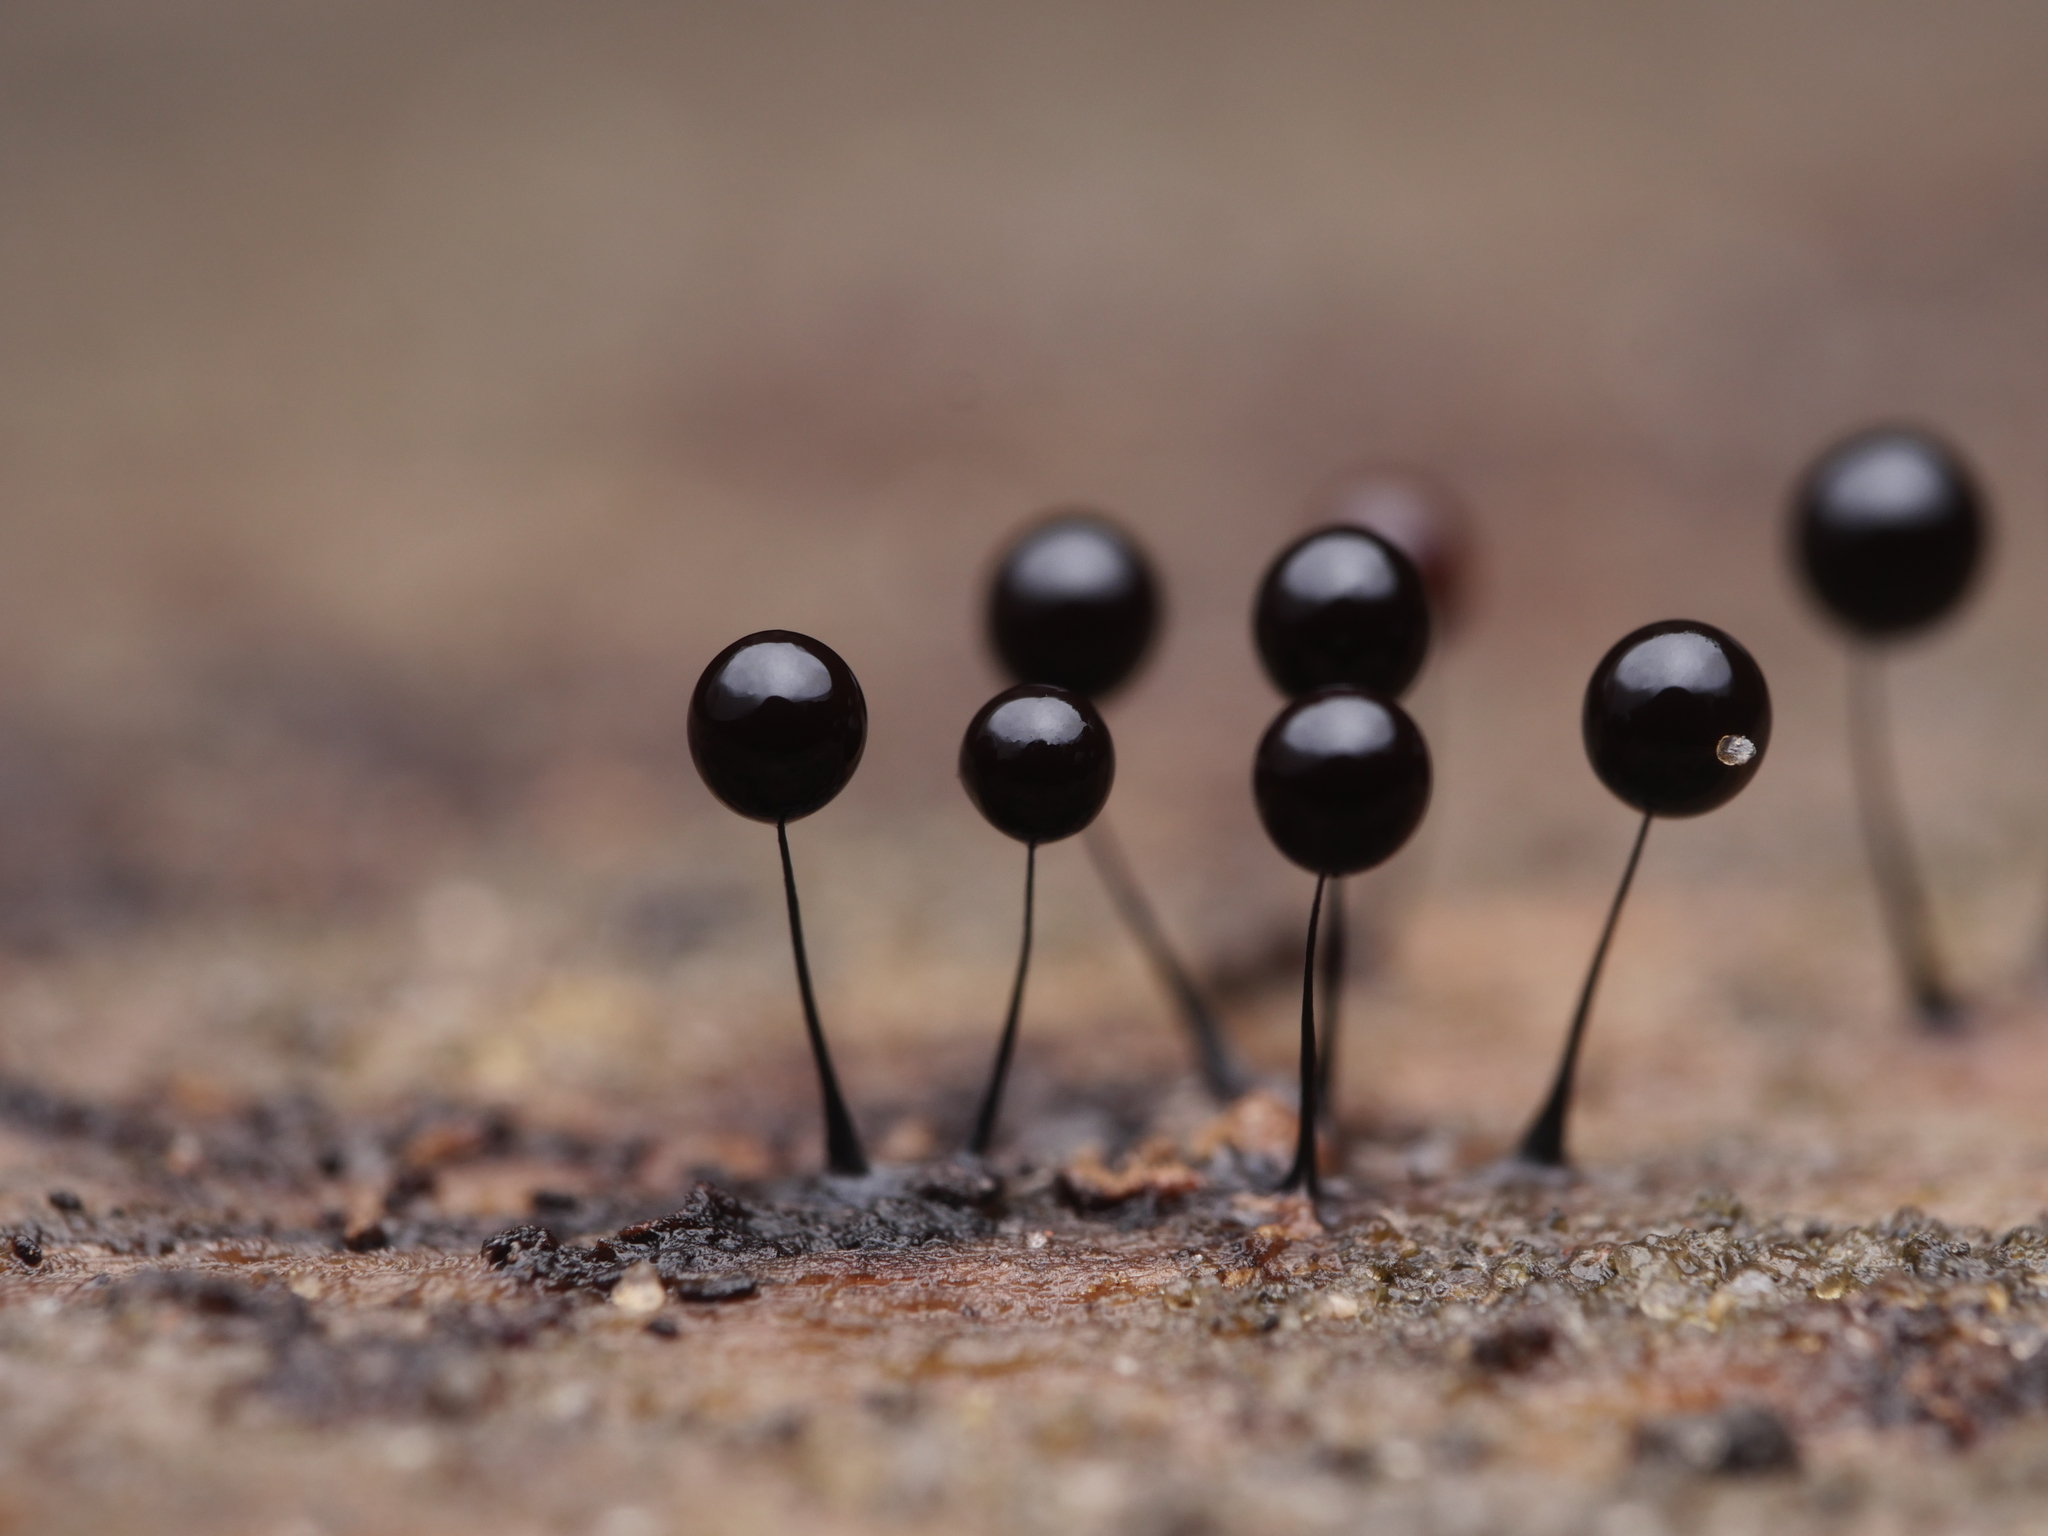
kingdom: Protozoa
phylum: Mycetozoa
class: Myxomycetes
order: Stemonitidales
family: Stemonitidaceae
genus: Comatricha
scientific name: Comatricha nigra
